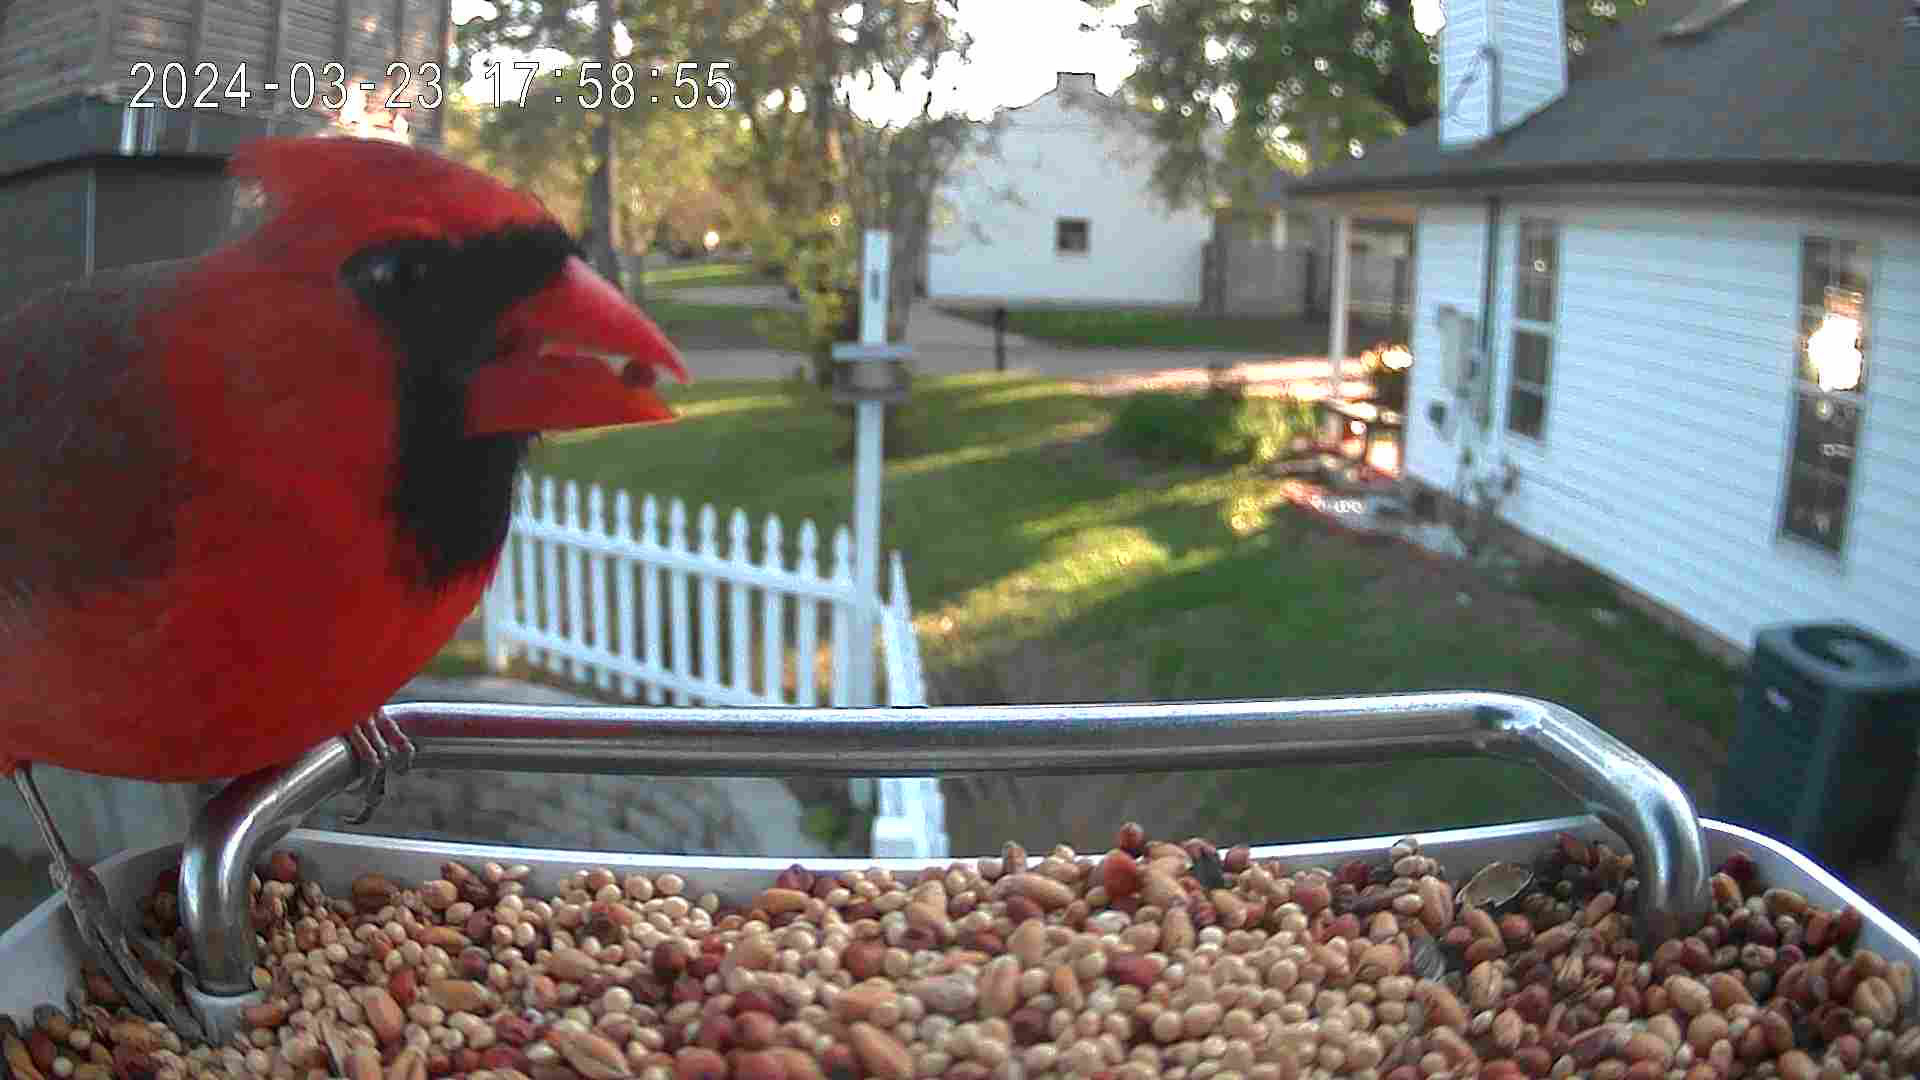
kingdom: Animalia
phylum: Chordata
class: Aves
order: Passeriformes
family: Cardinalidae
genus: Cardinalis
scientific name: Cardinalis cardinalis
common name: Northern cardinal
